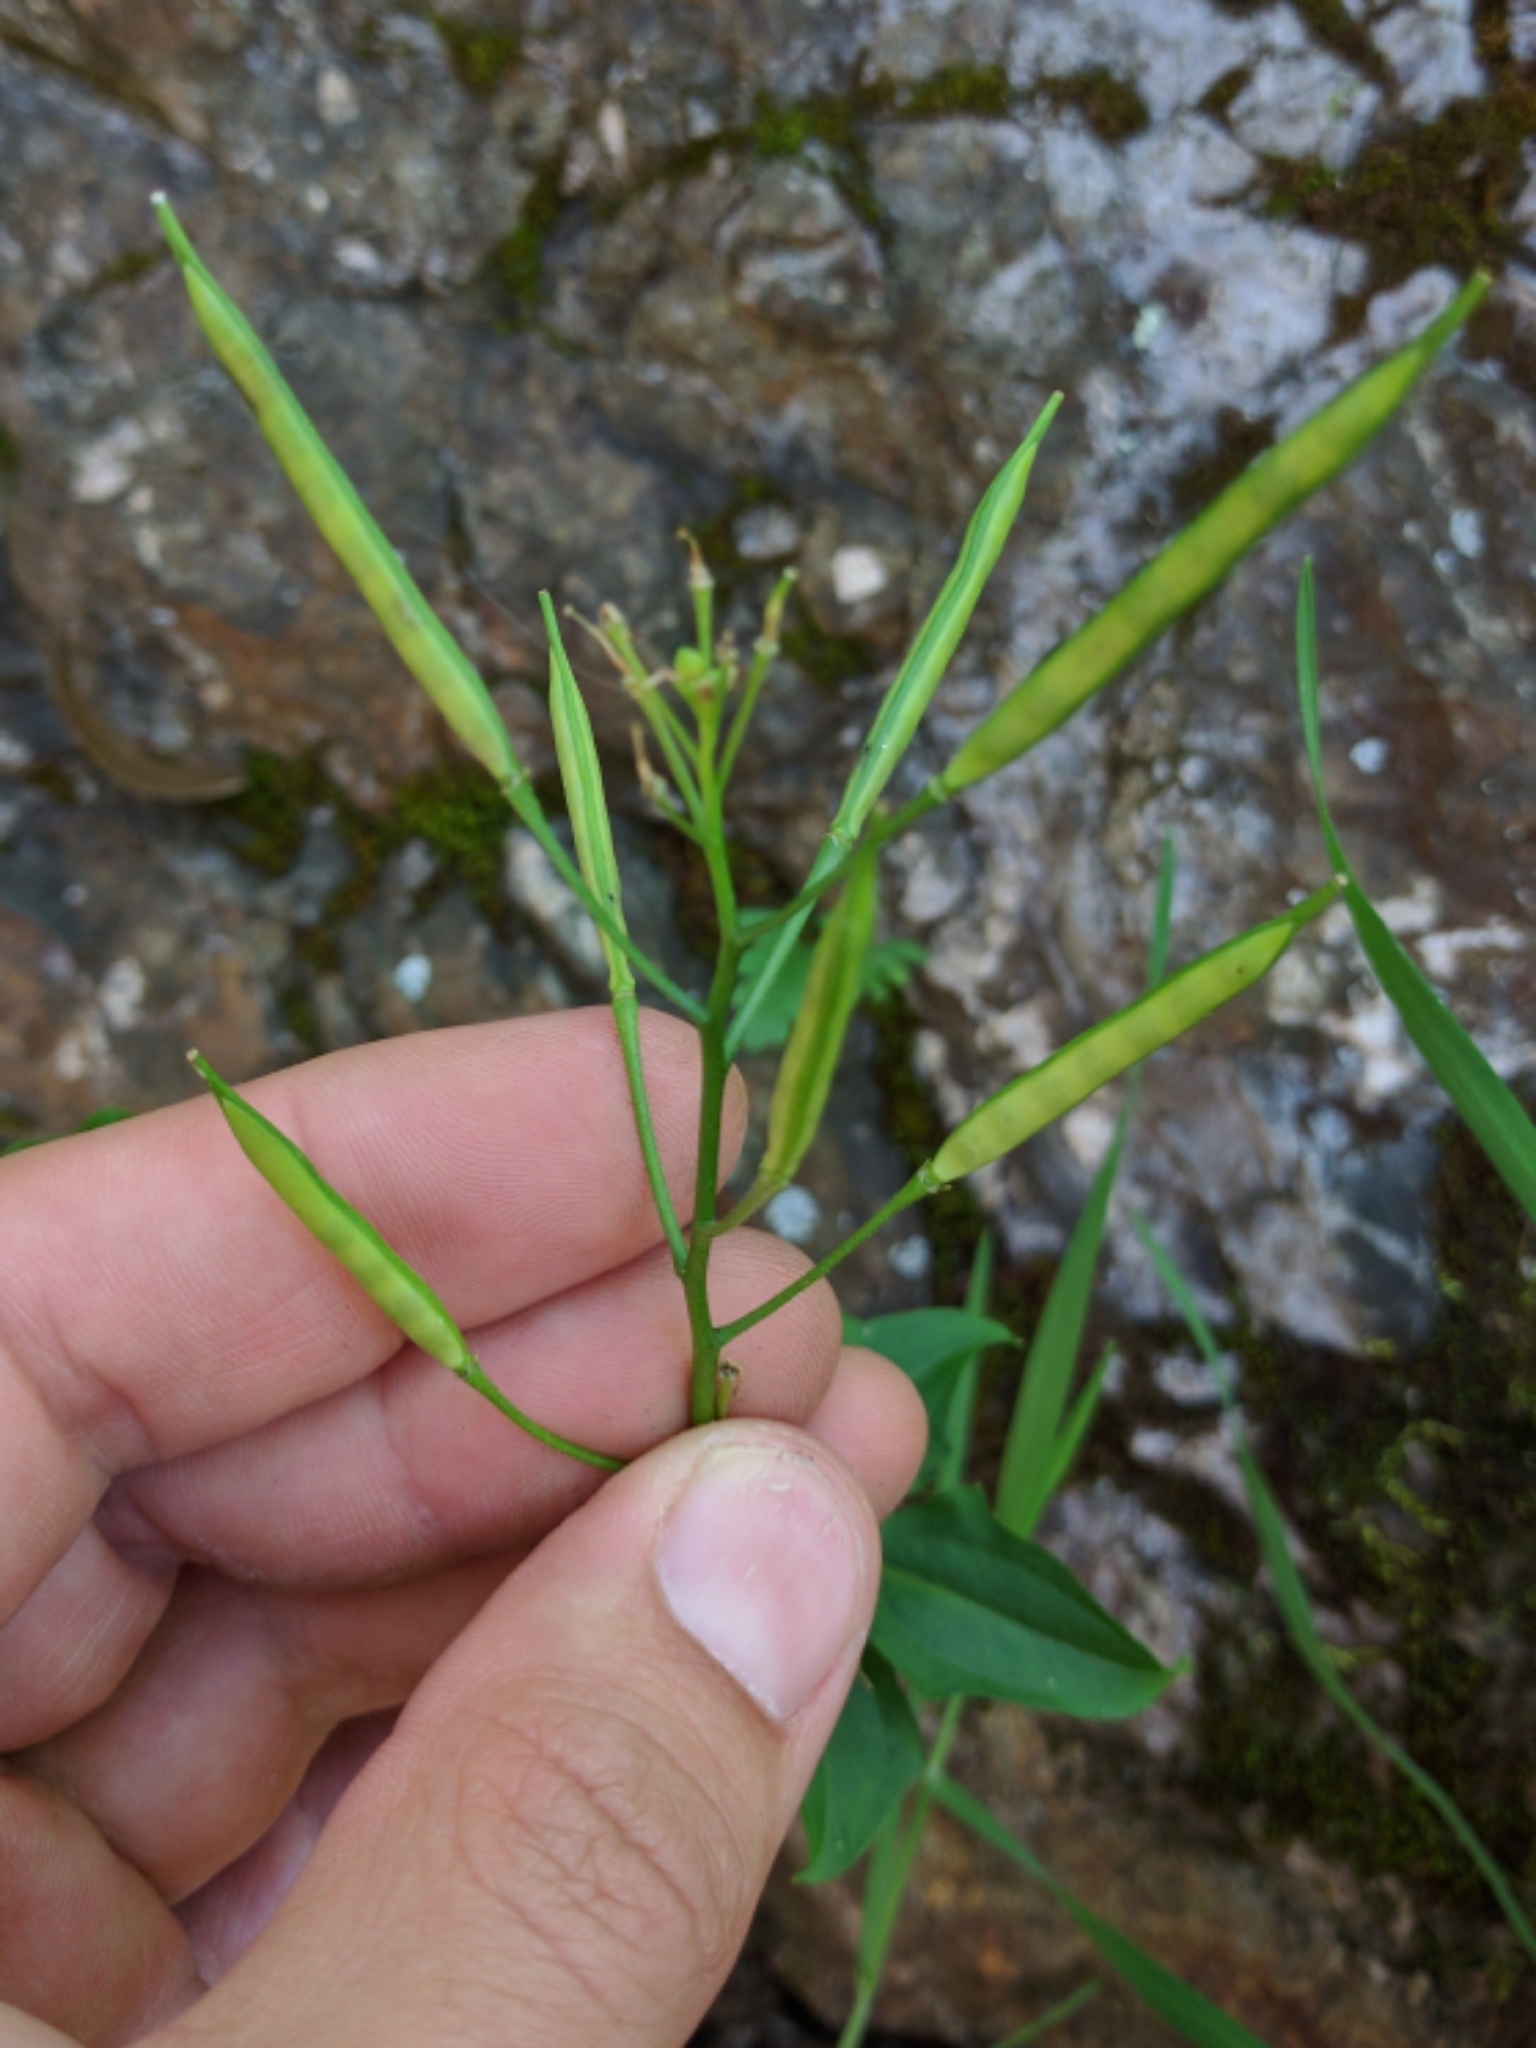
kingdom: Plantae
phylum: Tracheophyta
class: Magnoliopsida
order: Brassicales
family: Brassicaceae
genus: Cardamine
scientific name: Cardamine californica
